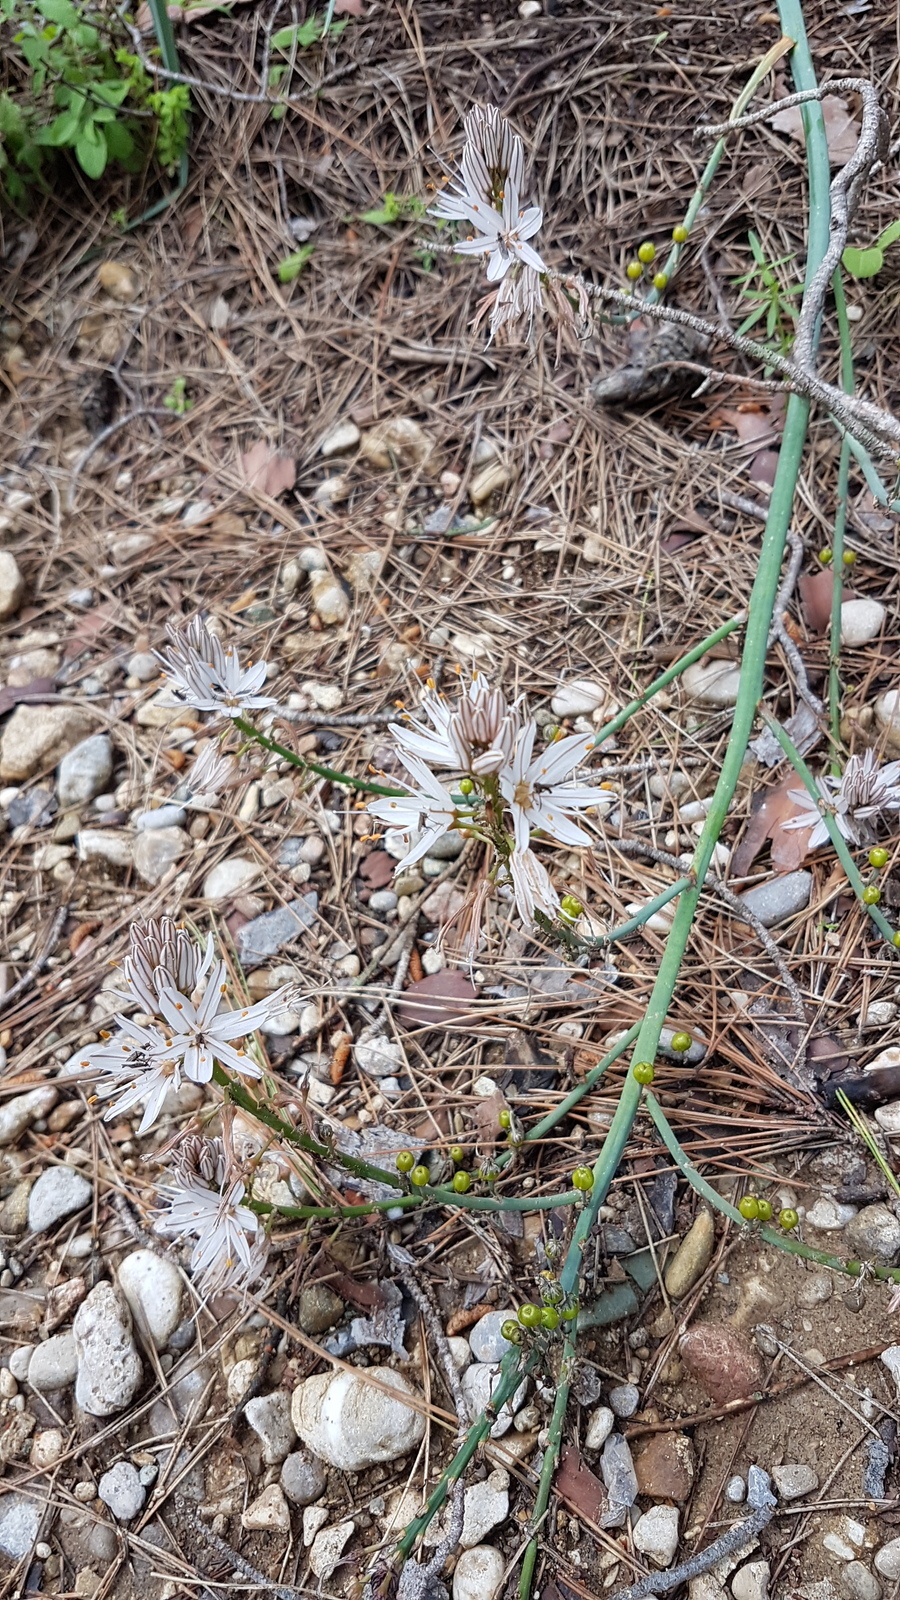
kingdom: Plantae
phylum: Tracheophyta
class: Liliopsida
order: Asparagales
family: Asphodelaceae
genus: Asphodelus
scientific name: Asphodelus ramosus
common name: Silverrod
